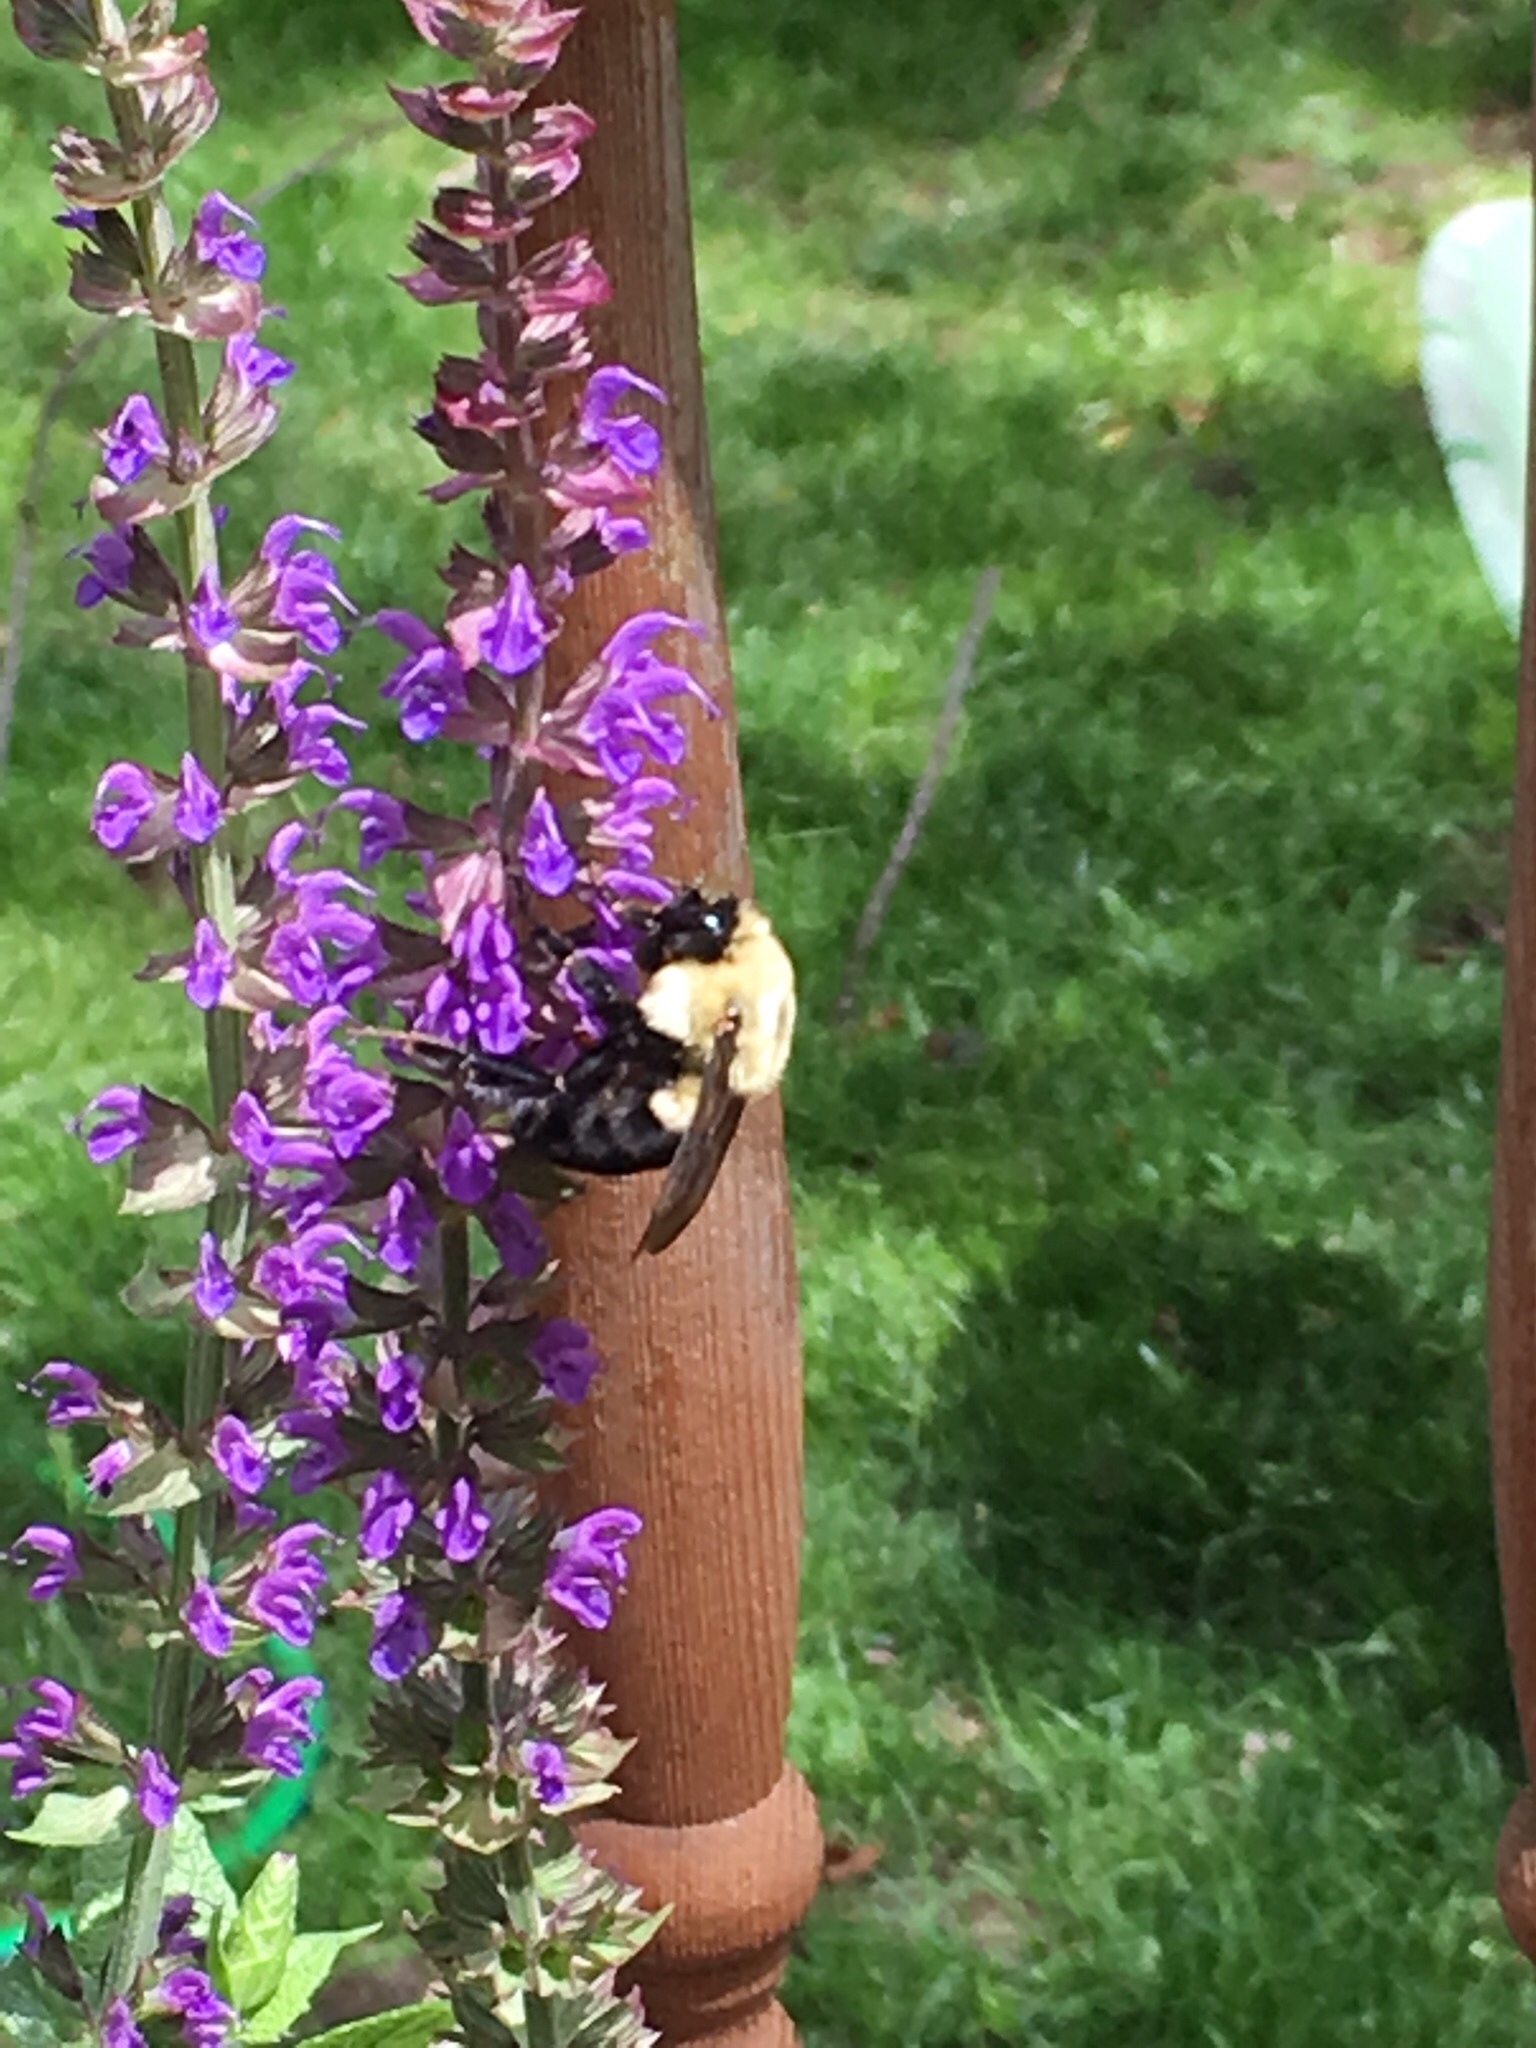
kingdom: Animalia
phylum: Arthropoda
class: Insecta
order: Hymenoptera
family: Apidae
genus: Bombus
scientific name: Bombus impatiens
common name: Common eastern bumble bee
